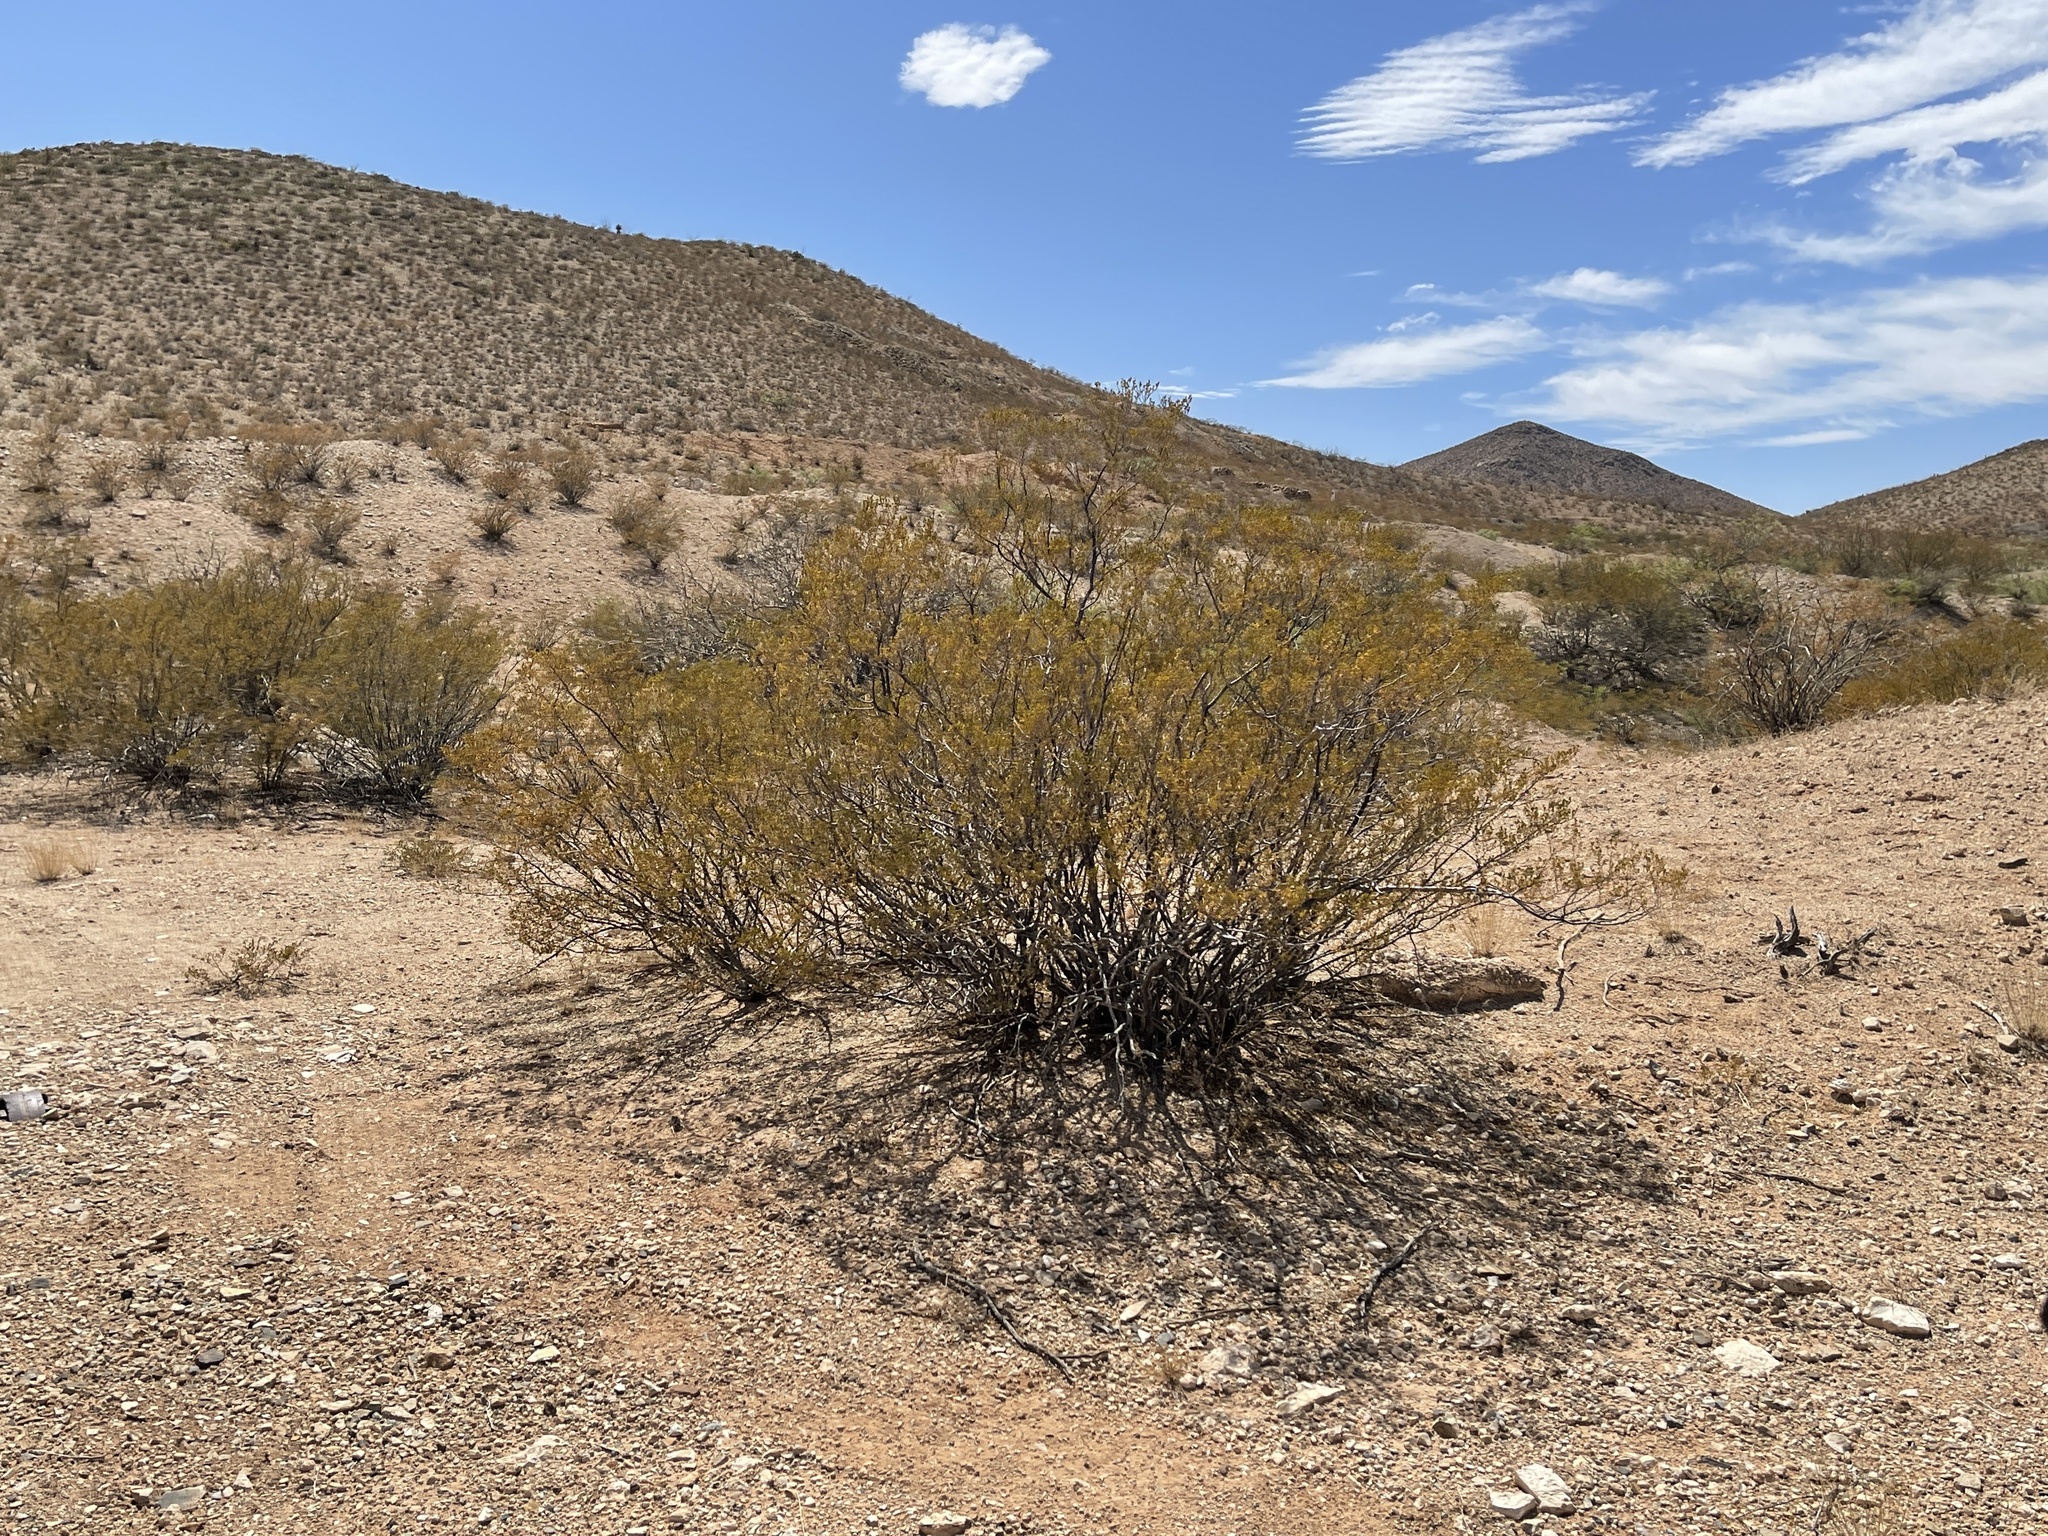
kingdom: Plantae
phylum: Tracheophyta
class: Magnoliopsida
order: Zygophyllales
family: Zygophyllaceae
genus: Larrea
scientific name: Larrea tridentata
